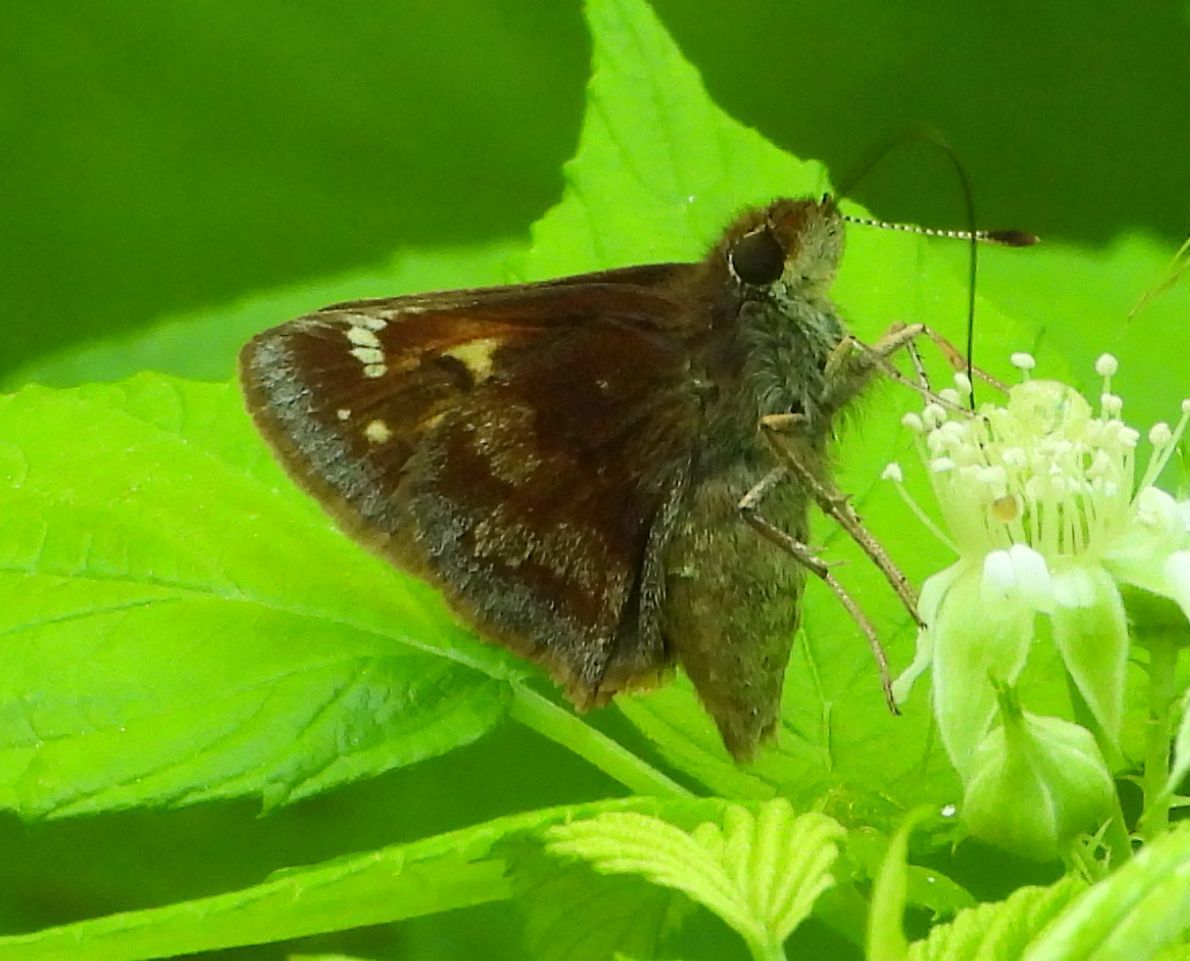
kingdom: Animalia
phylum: Arthropoda
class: Insecta
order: Lepidoptera
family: Hesperiidae
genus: Lon
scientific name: Lon hobomok
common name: Hobomok skipper
